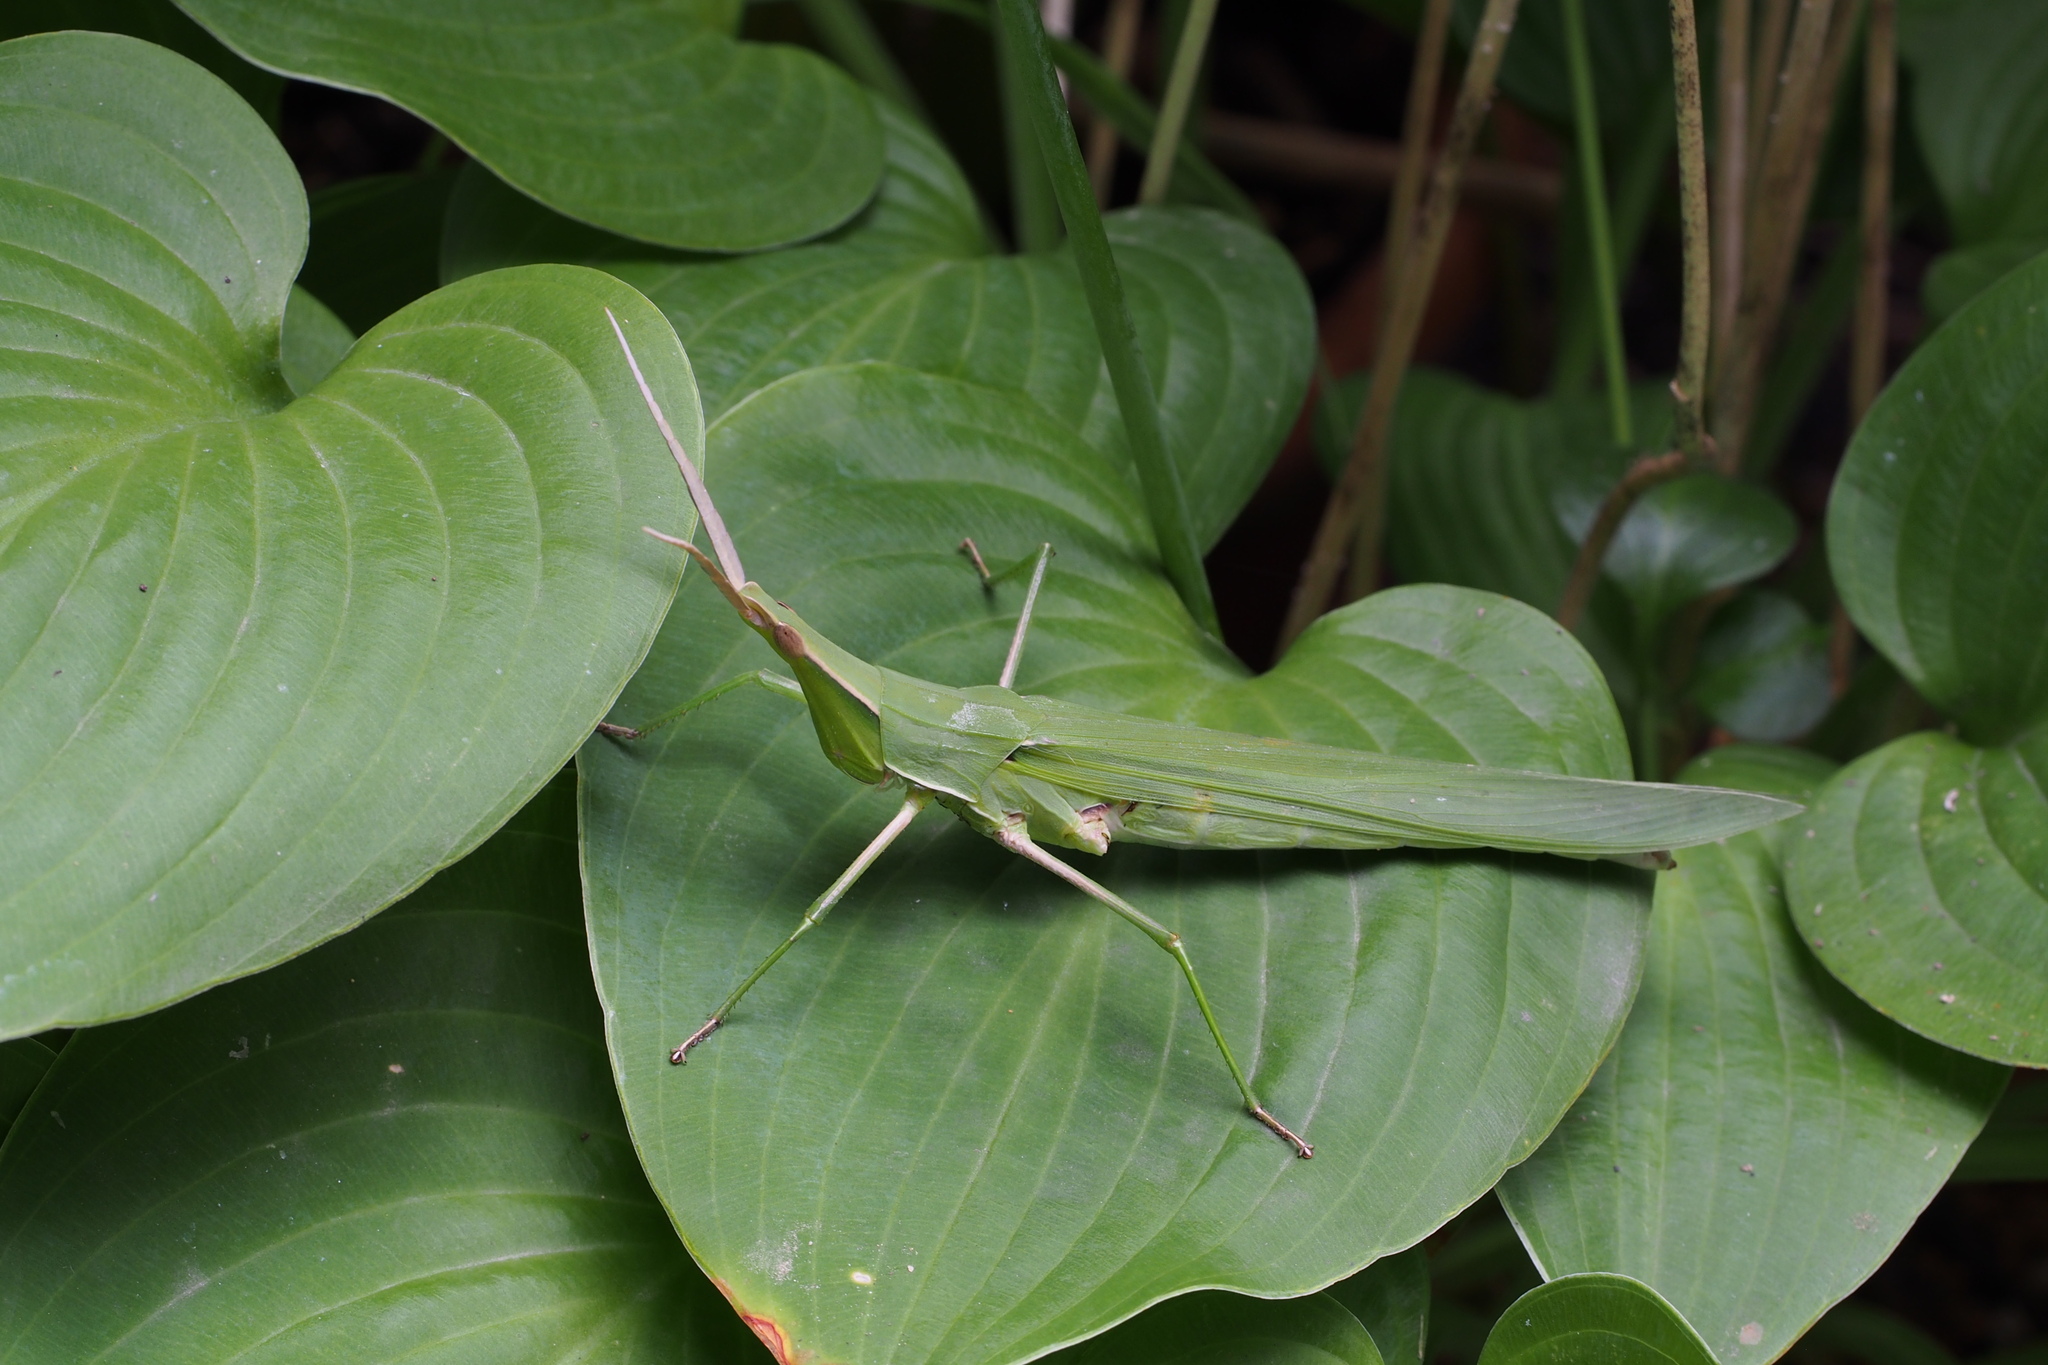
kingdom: Animalia
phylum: Arthropoda
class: Insecta
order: Orthoptera
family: Acrididae
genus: Acrida
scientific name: Acrida cinerea
